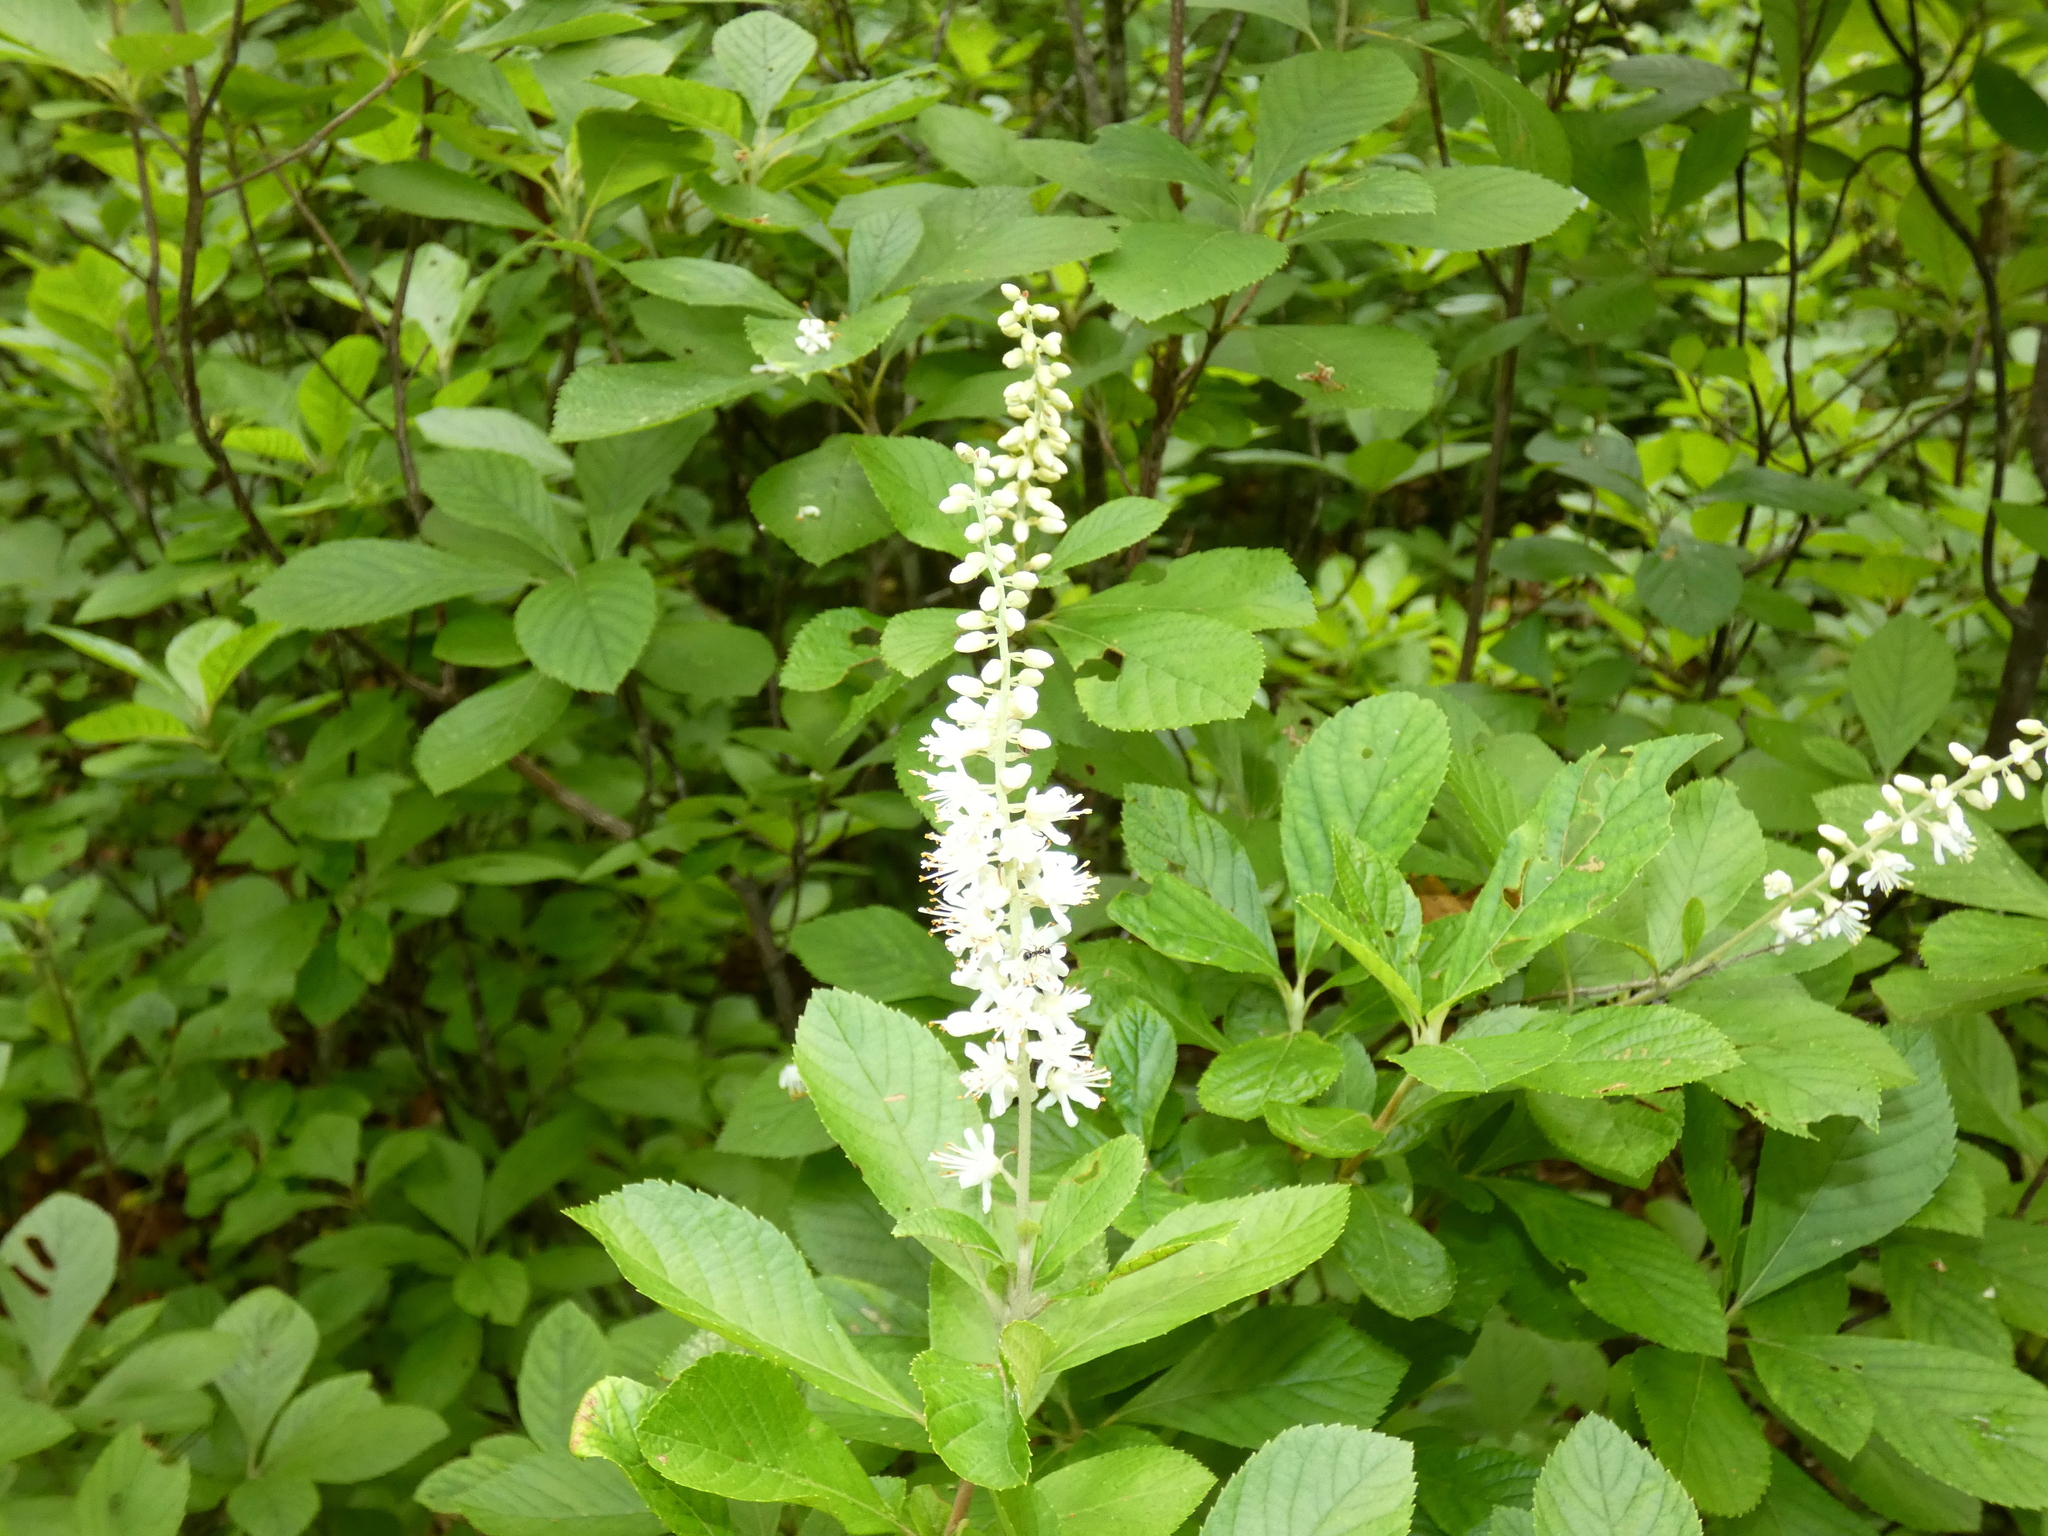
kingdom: Plantae
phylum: Tracheophyta
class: Magnoliopsida
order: Ericales
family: Clethraceae
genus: Clethra
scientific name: Clethra alnifolia
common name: Sweet pepperbush
